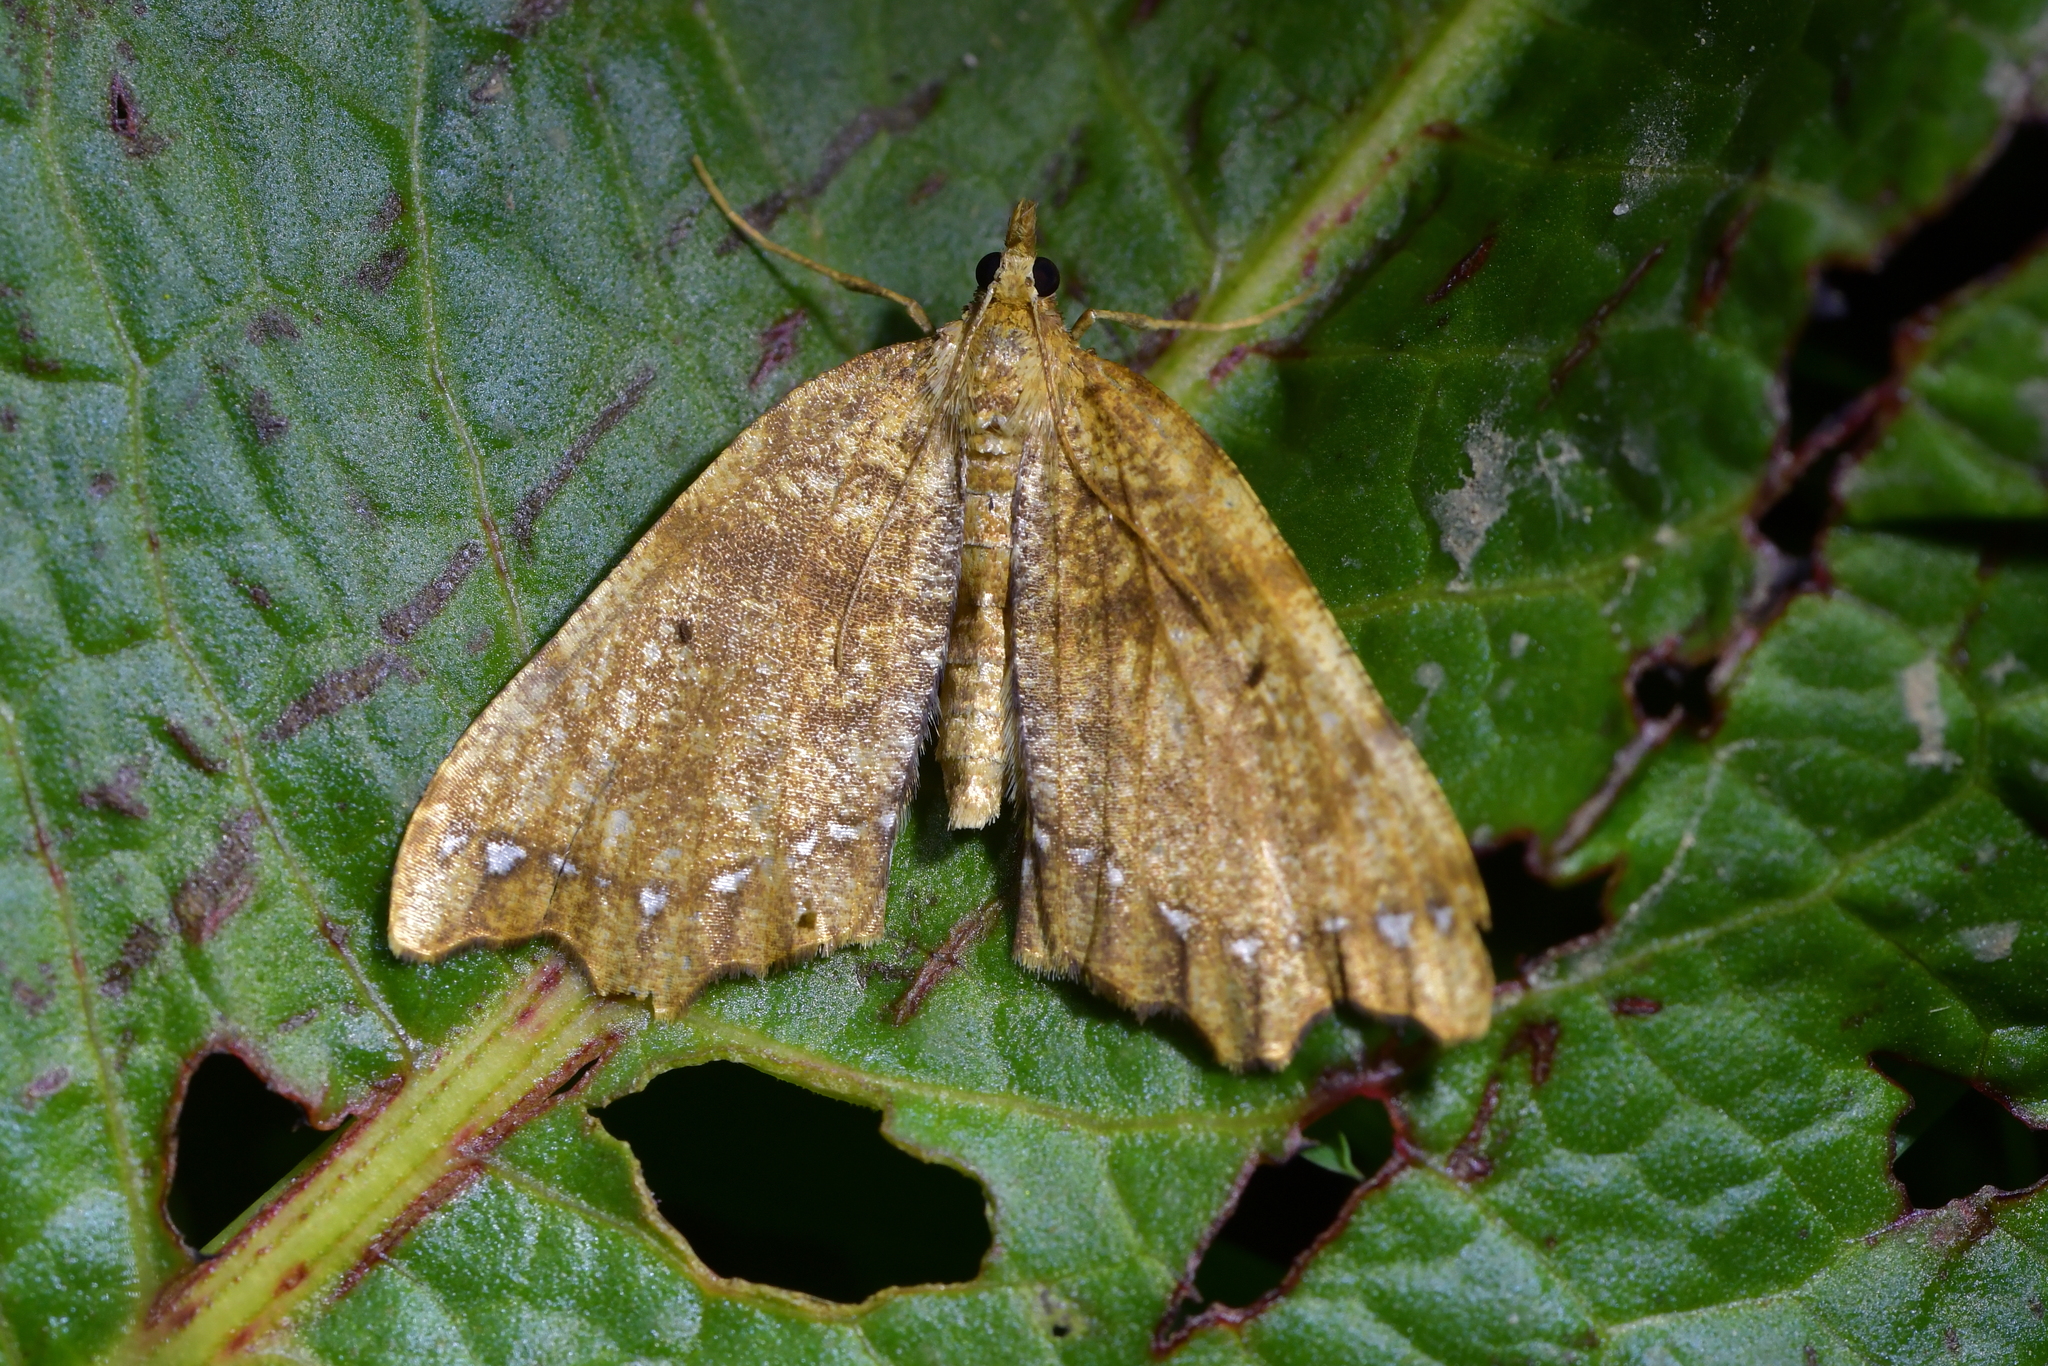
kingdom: Animalia
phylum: Arthropoda
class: Insecta
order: Lepidoptera
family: Geometridae
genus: Chalastra
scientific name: Chalastra pellurgata
